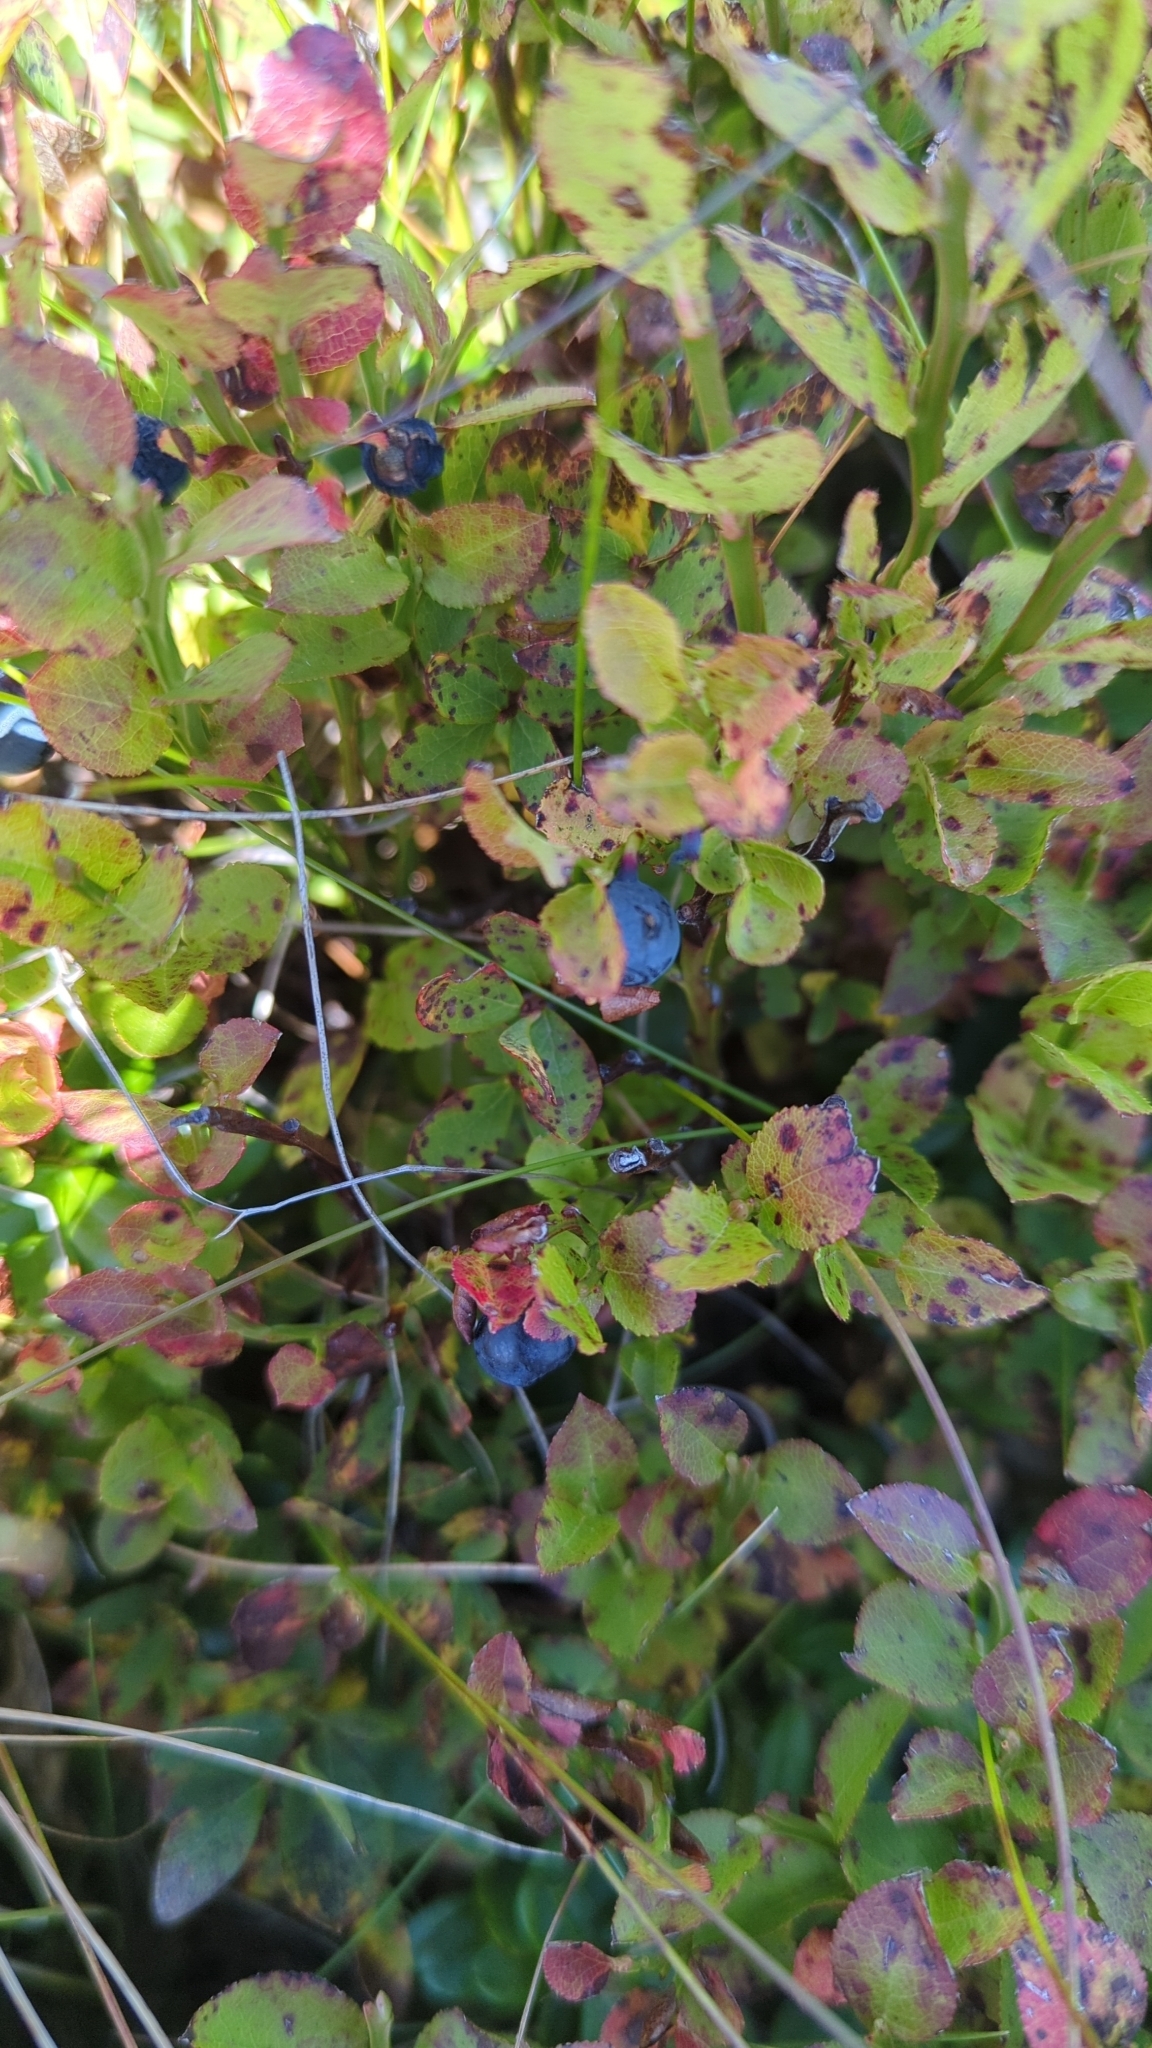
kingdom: Plantae
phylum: Tracheophyta
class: Magnoliopsida
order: Ericales
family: Ericaceae
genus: Vaccinium
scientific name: Vaccinium myrtillus
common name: Bilberry
